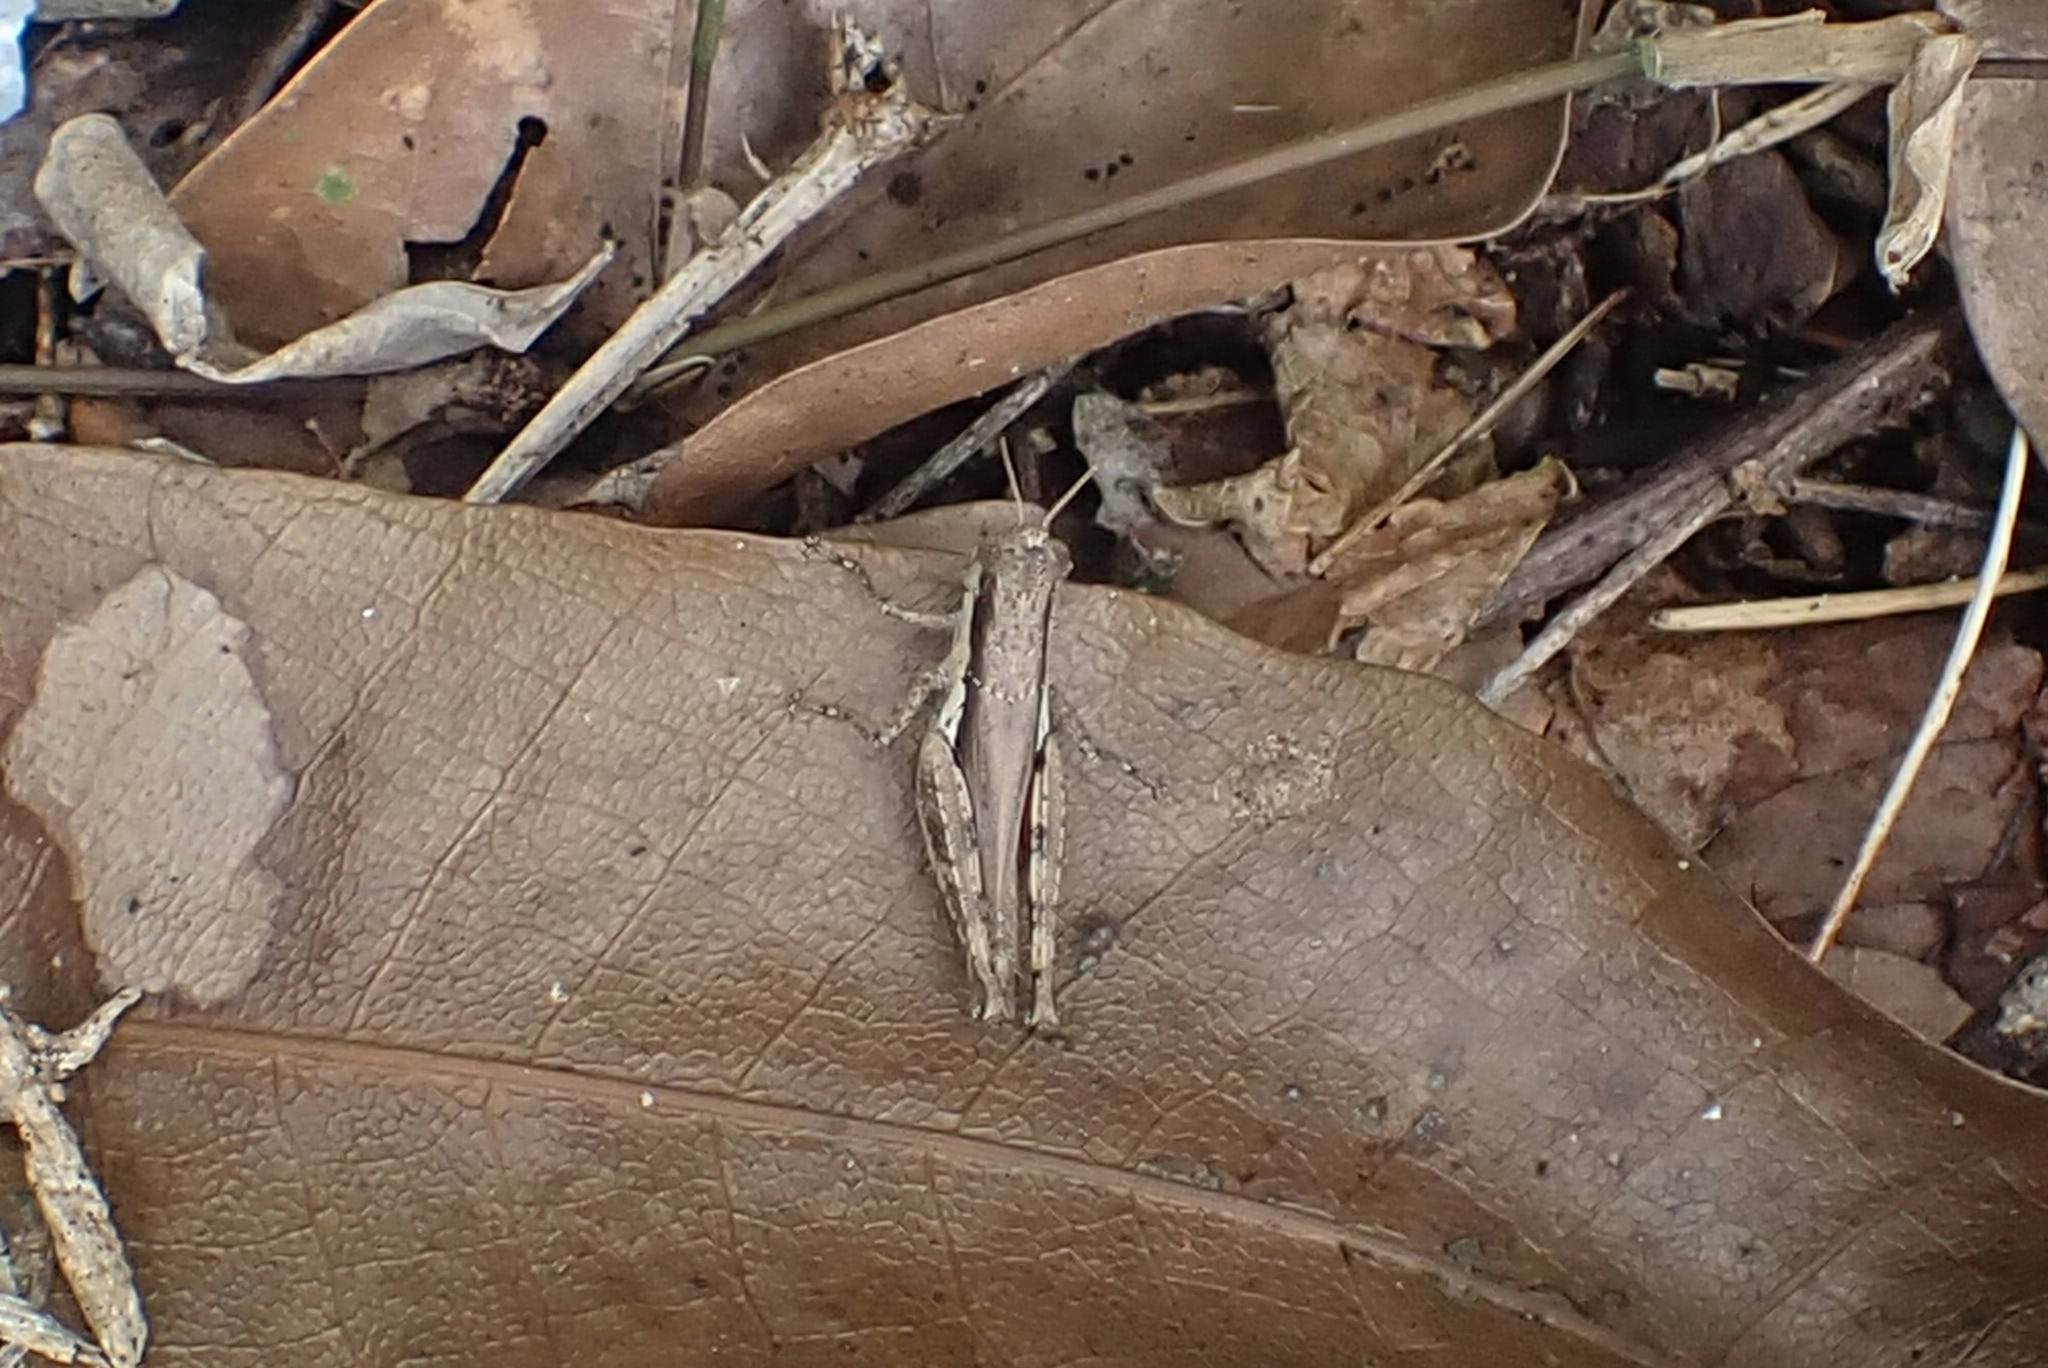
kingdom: Animalia
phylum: Arthropoda
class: Insecta
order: Orthoptera
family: Acrididae
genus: Pseudoxya
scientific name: Pseudoxya diminuta
